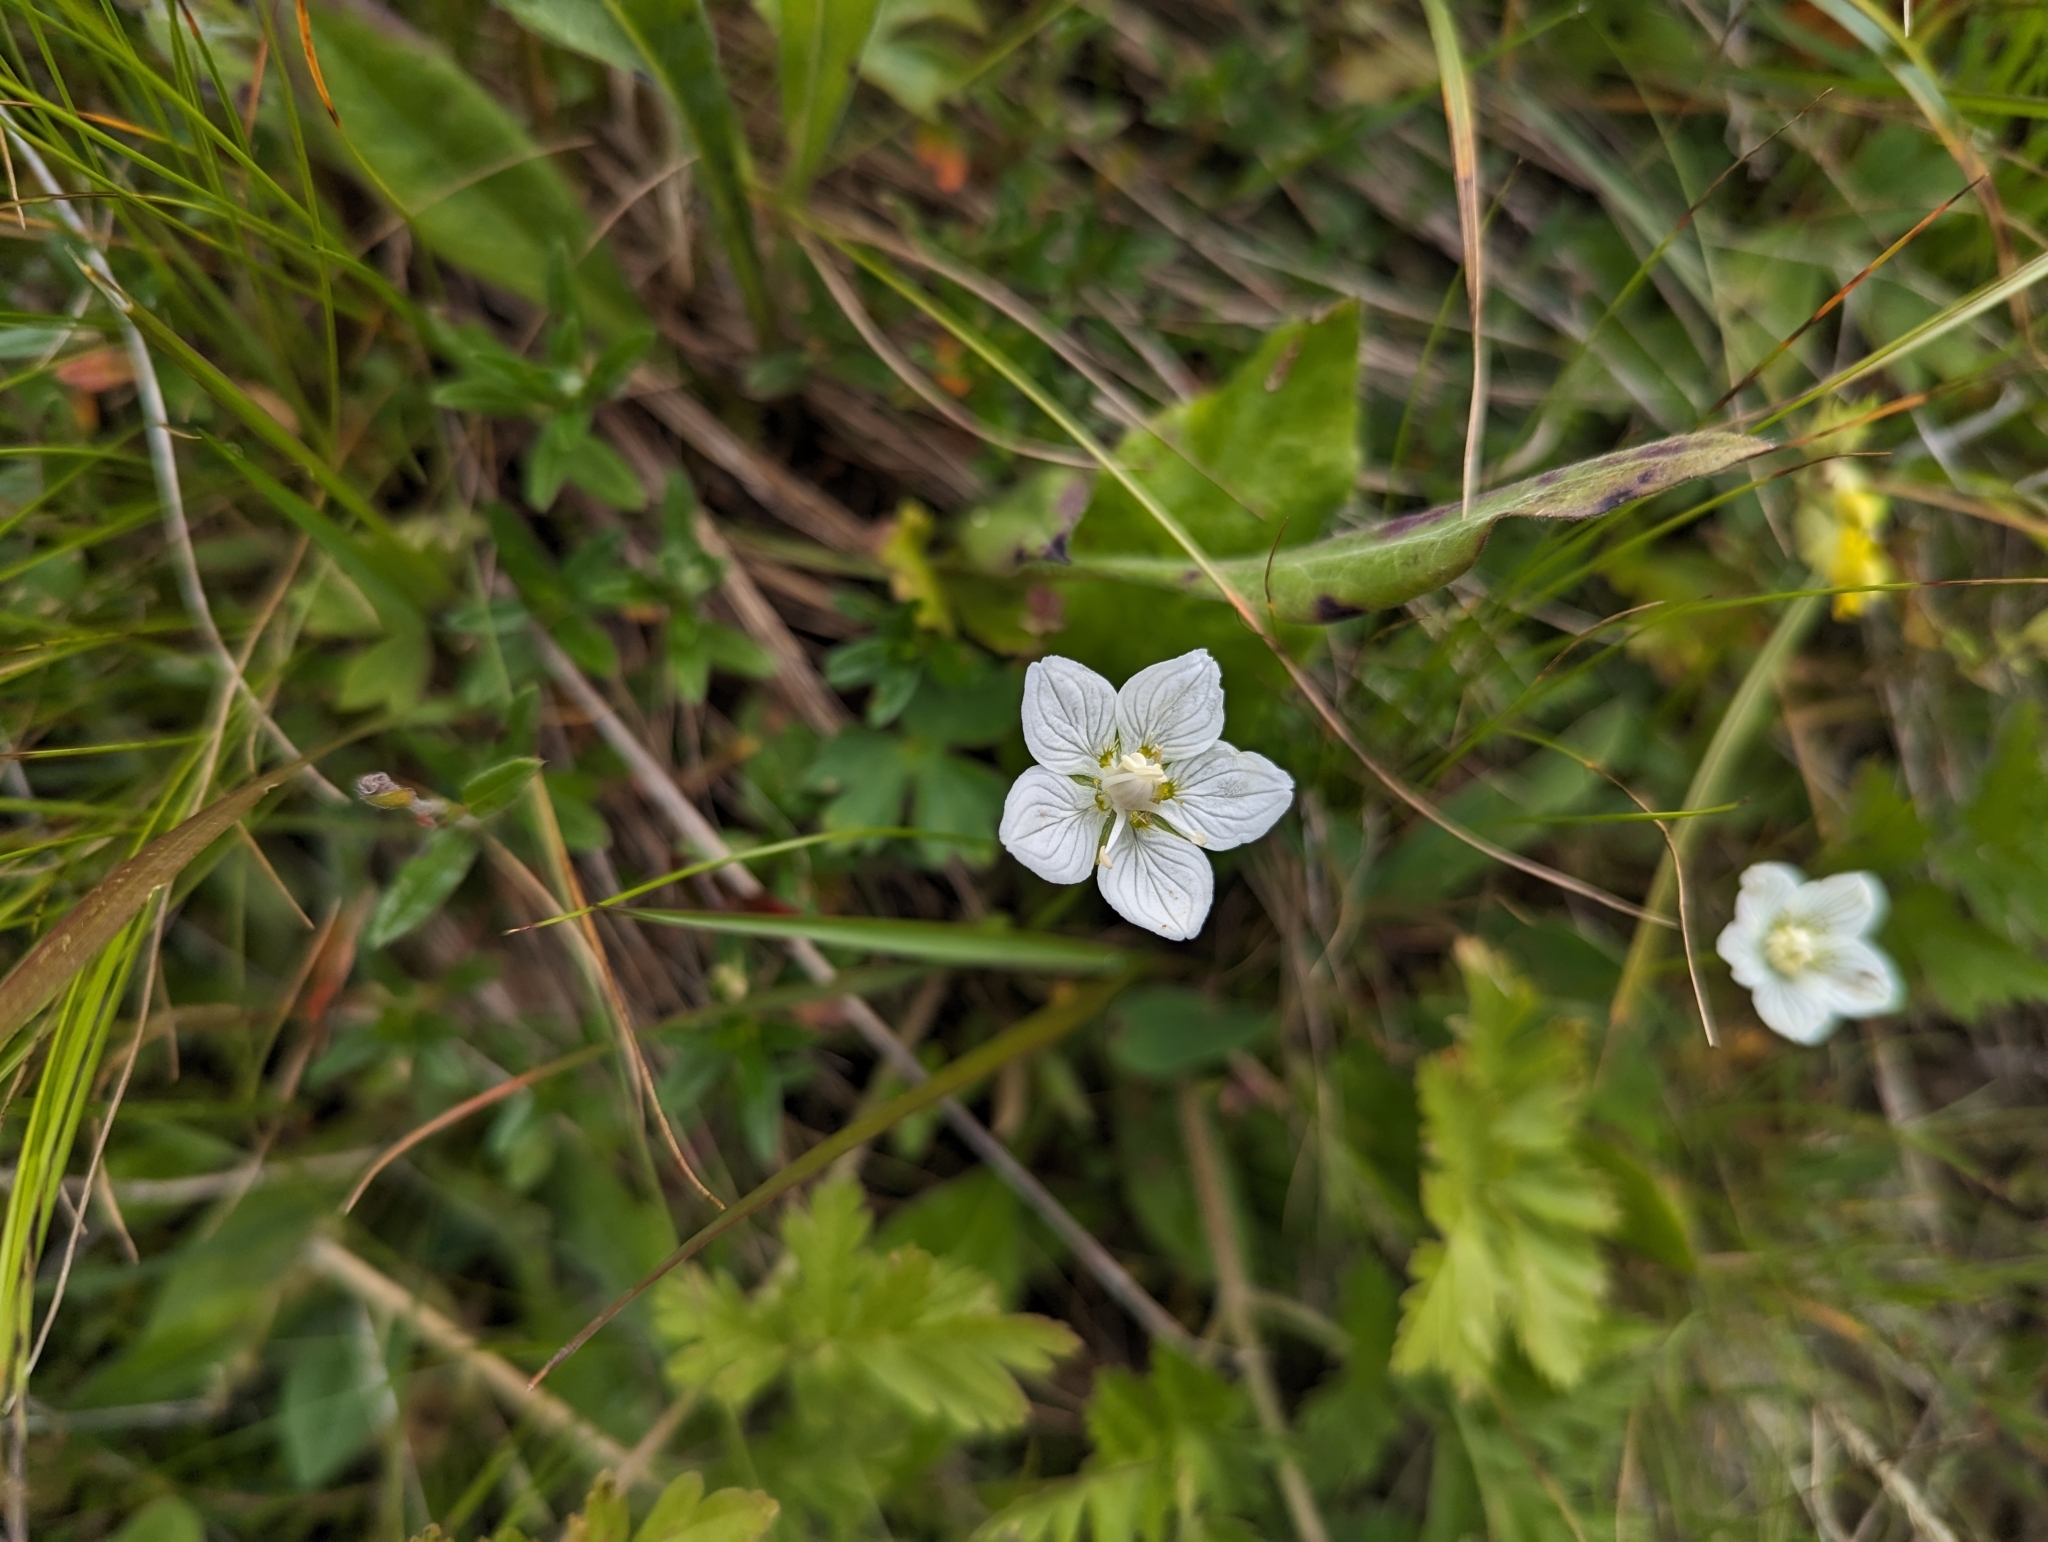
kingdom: Plantae
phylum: Tracheophyta
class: Magnoliopsida
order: Celastrales
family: Parnassiaceae
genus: Parnassia
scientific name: Parnassia palustris
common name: Grass-of-parnassus
